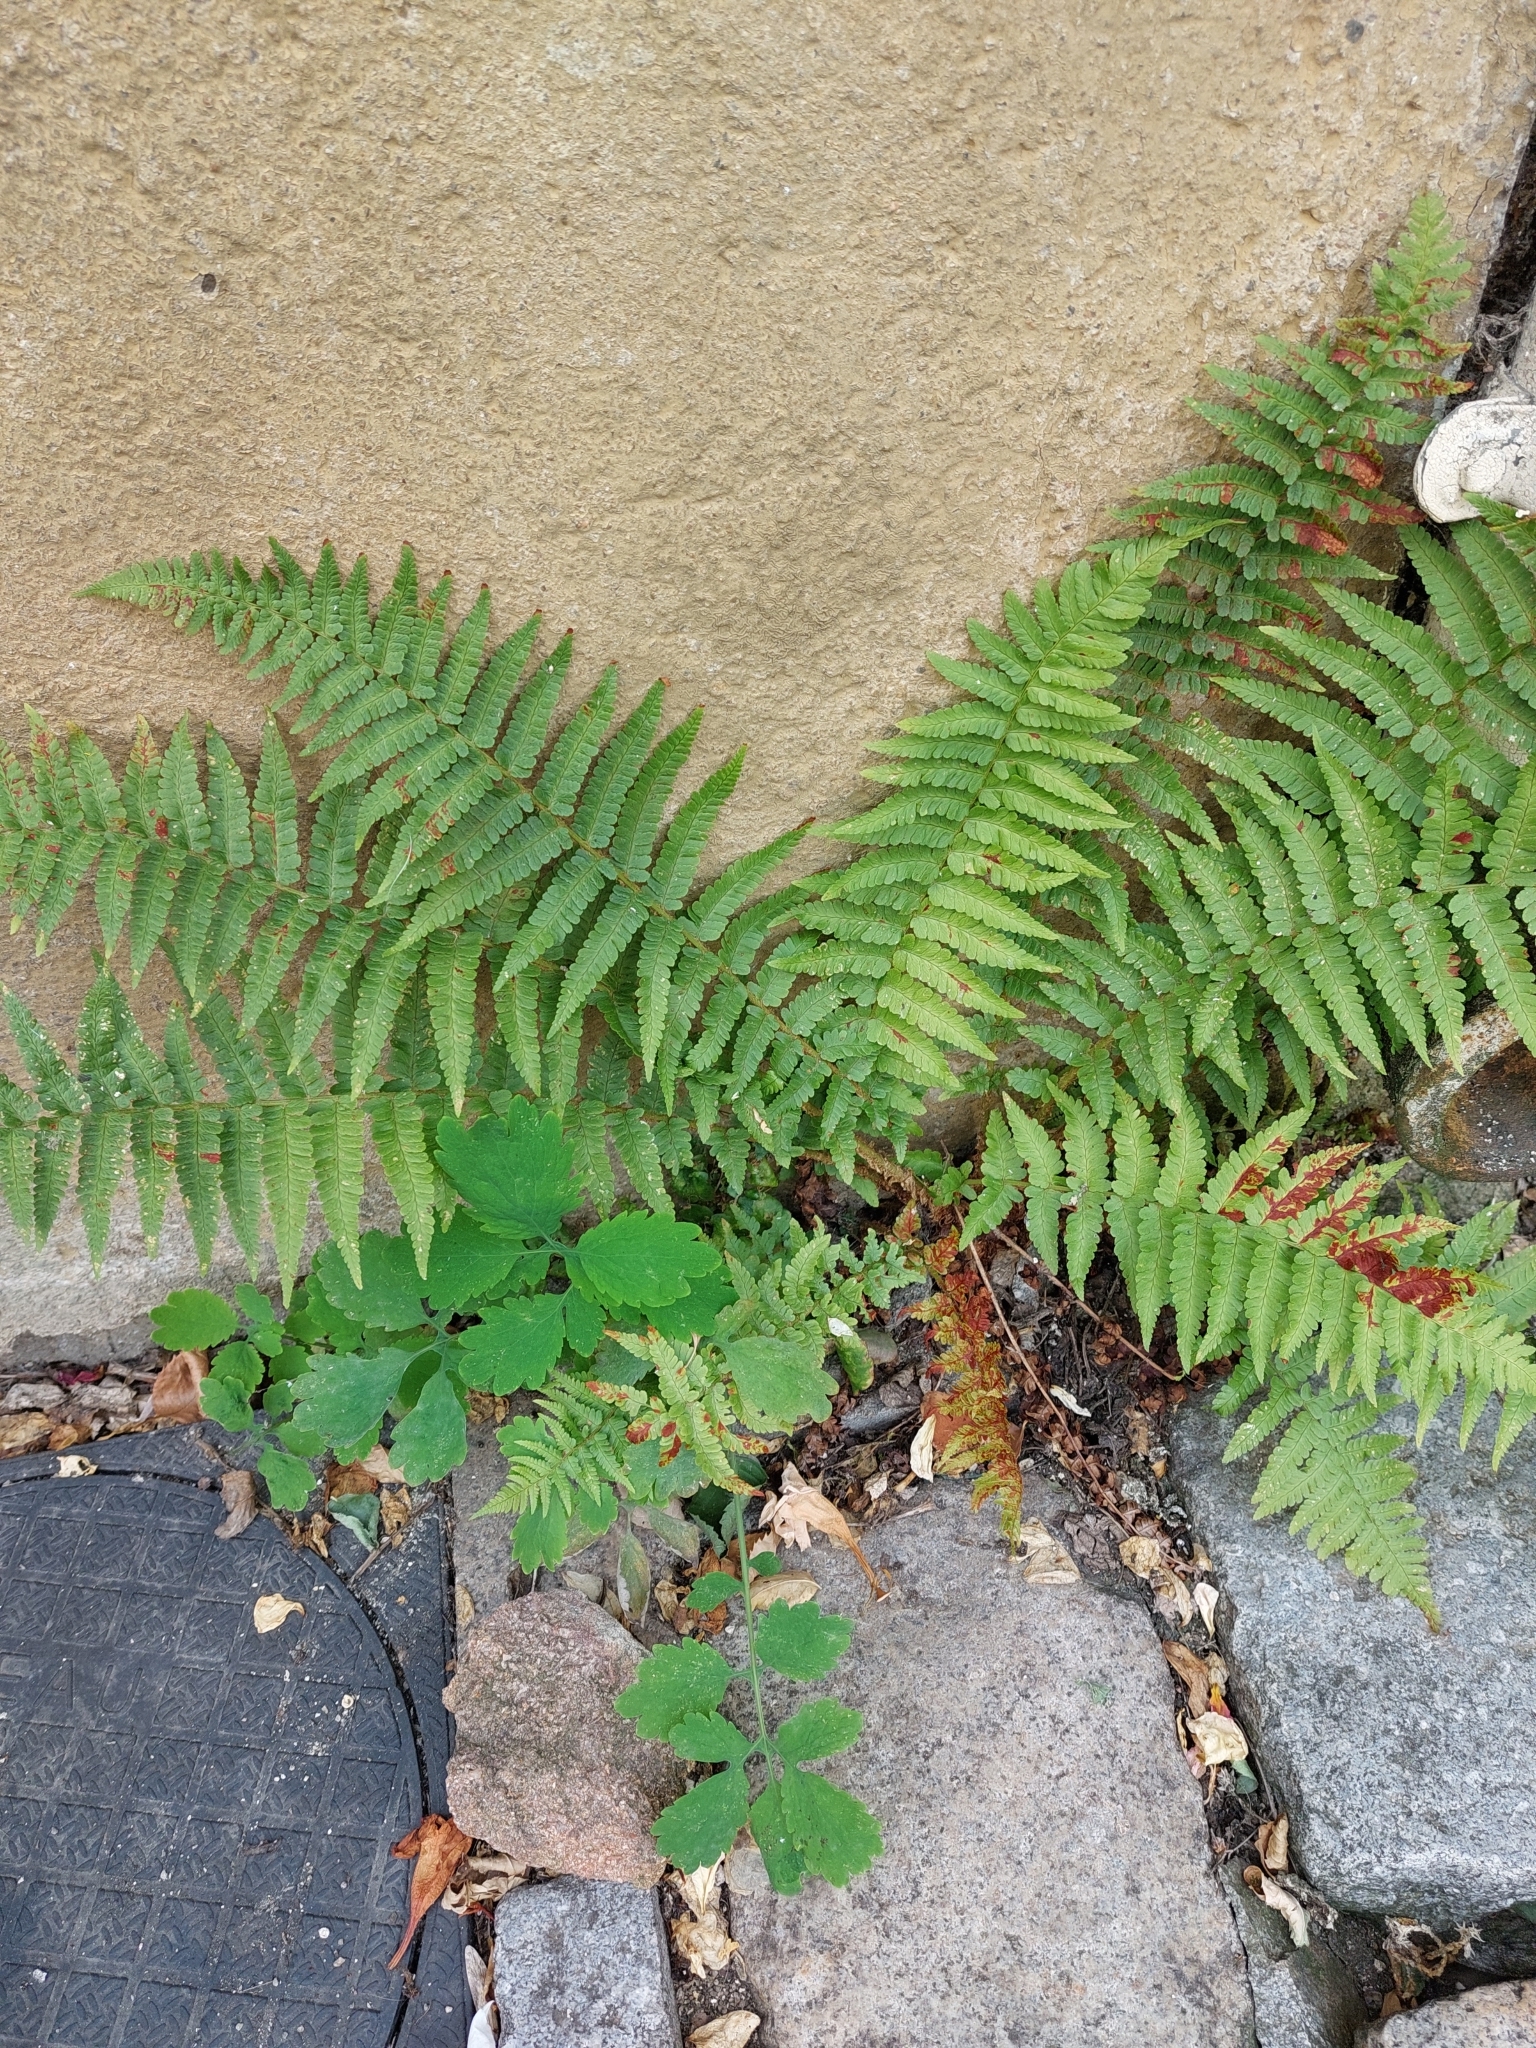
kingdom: Plantae
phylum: Tracheophyta
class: Polypodiopsida
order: Polypodiales
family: Dryopteridaceae
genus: Dryopteris
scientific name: Dryopteris filix-mas
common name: Male fern
